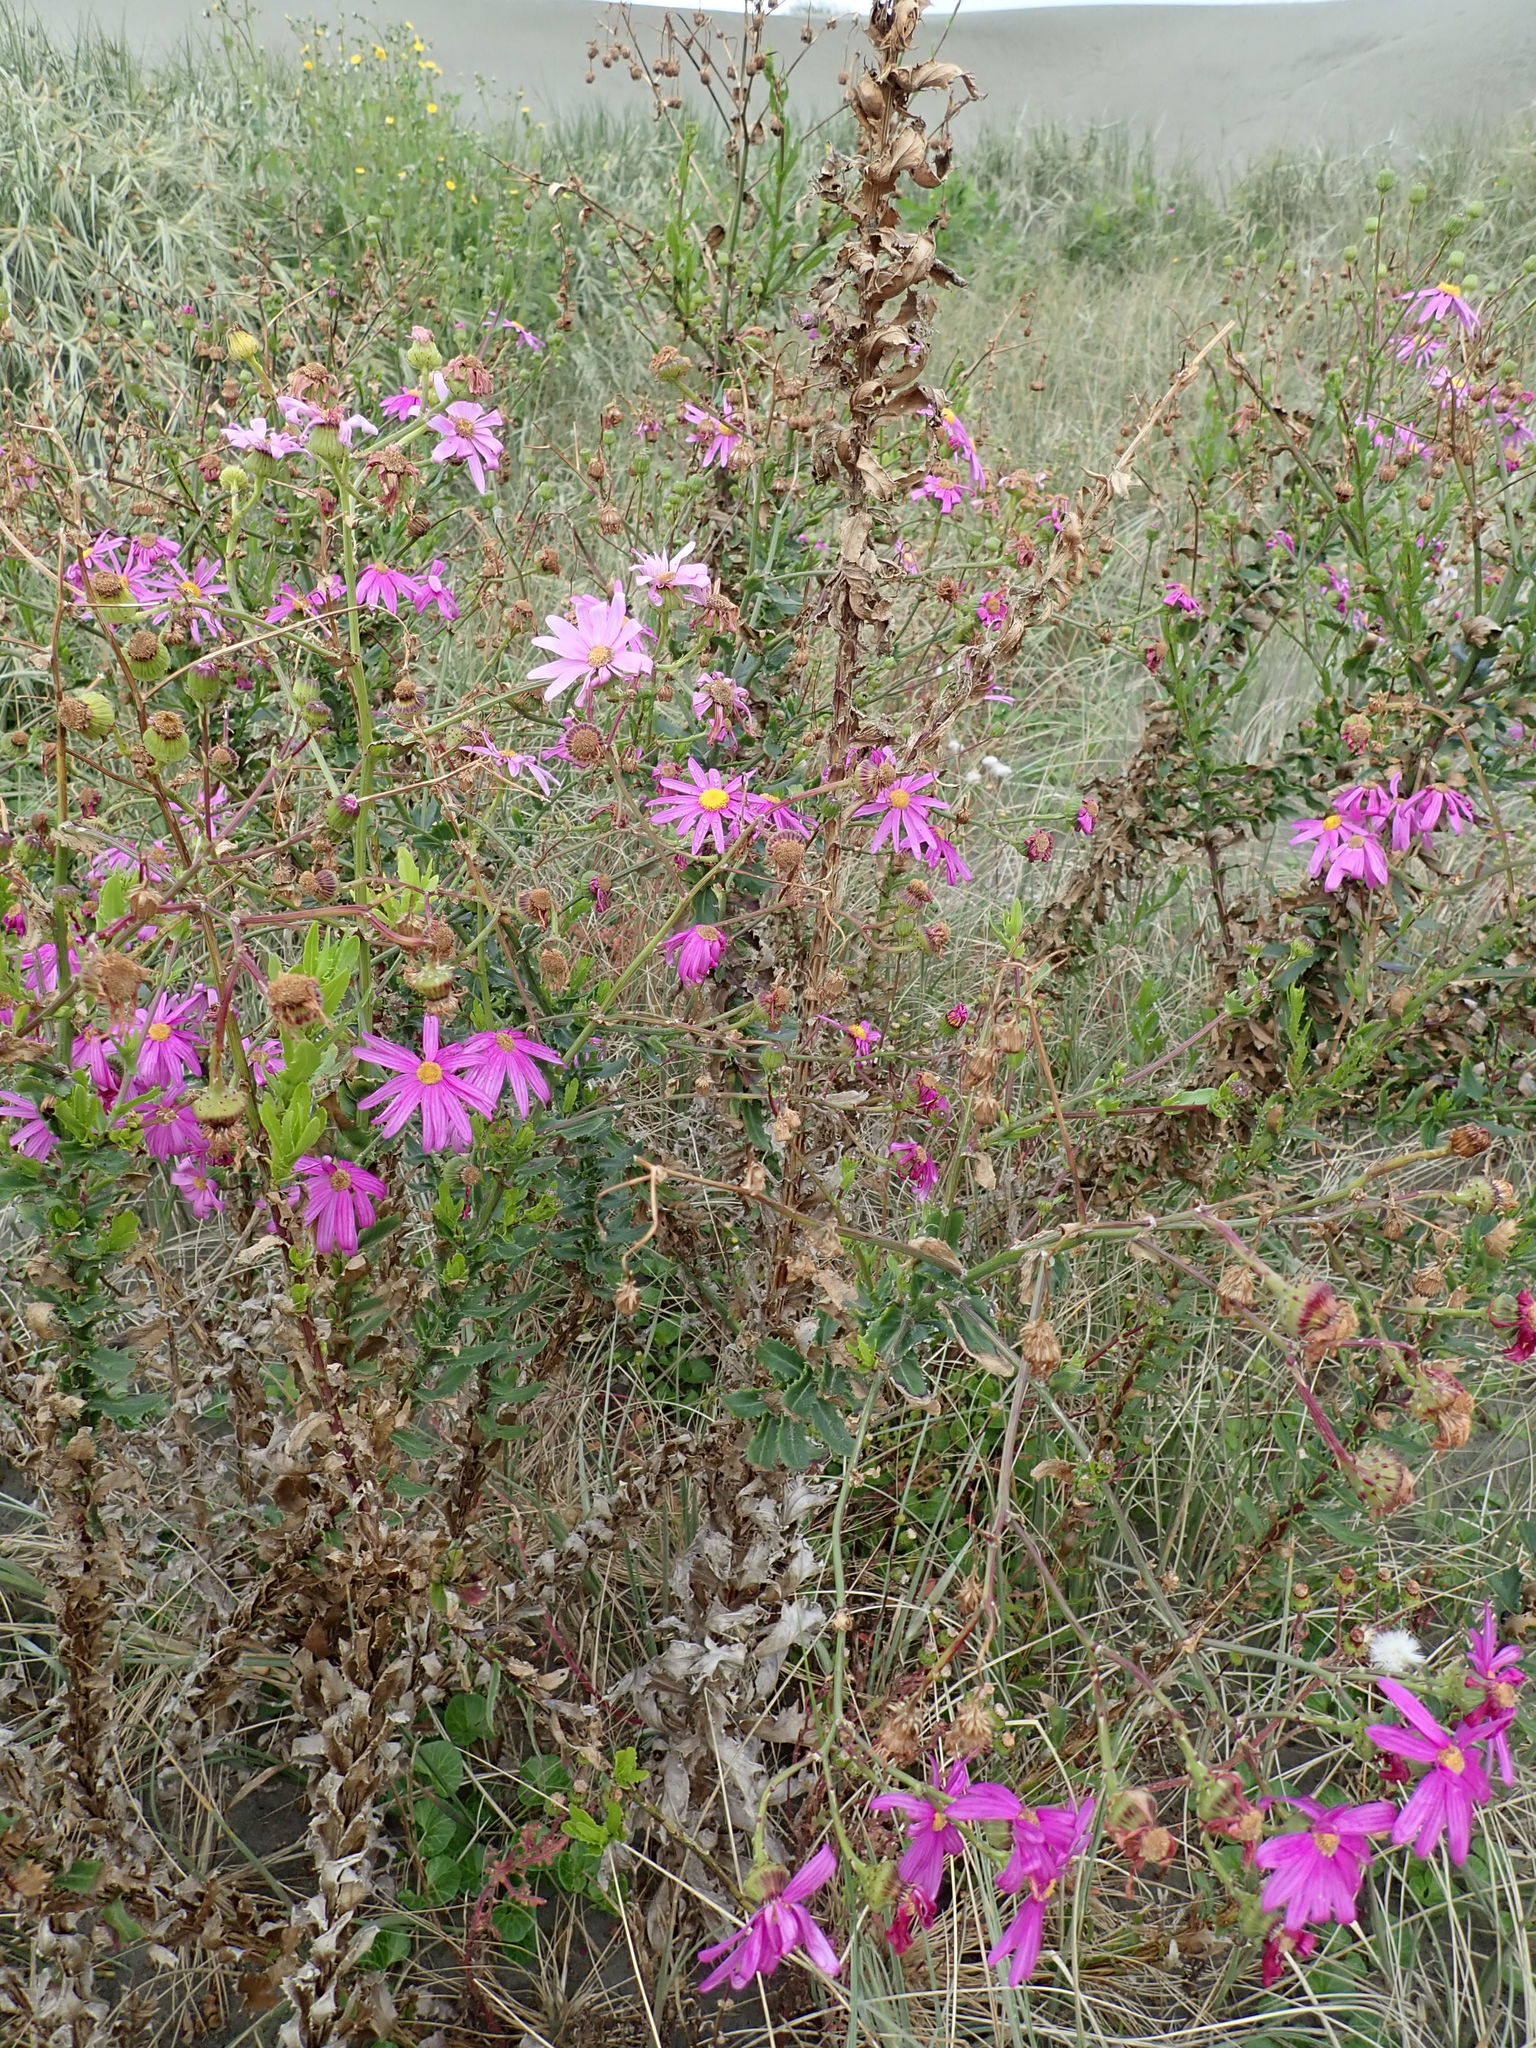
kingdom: Plantae
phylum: Tracheophyta
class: Magnoliopsida
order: Asterales
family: Asteraceae
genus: Senecio
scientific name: Senecio glastifolius
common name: Woad-leaved ragwort
